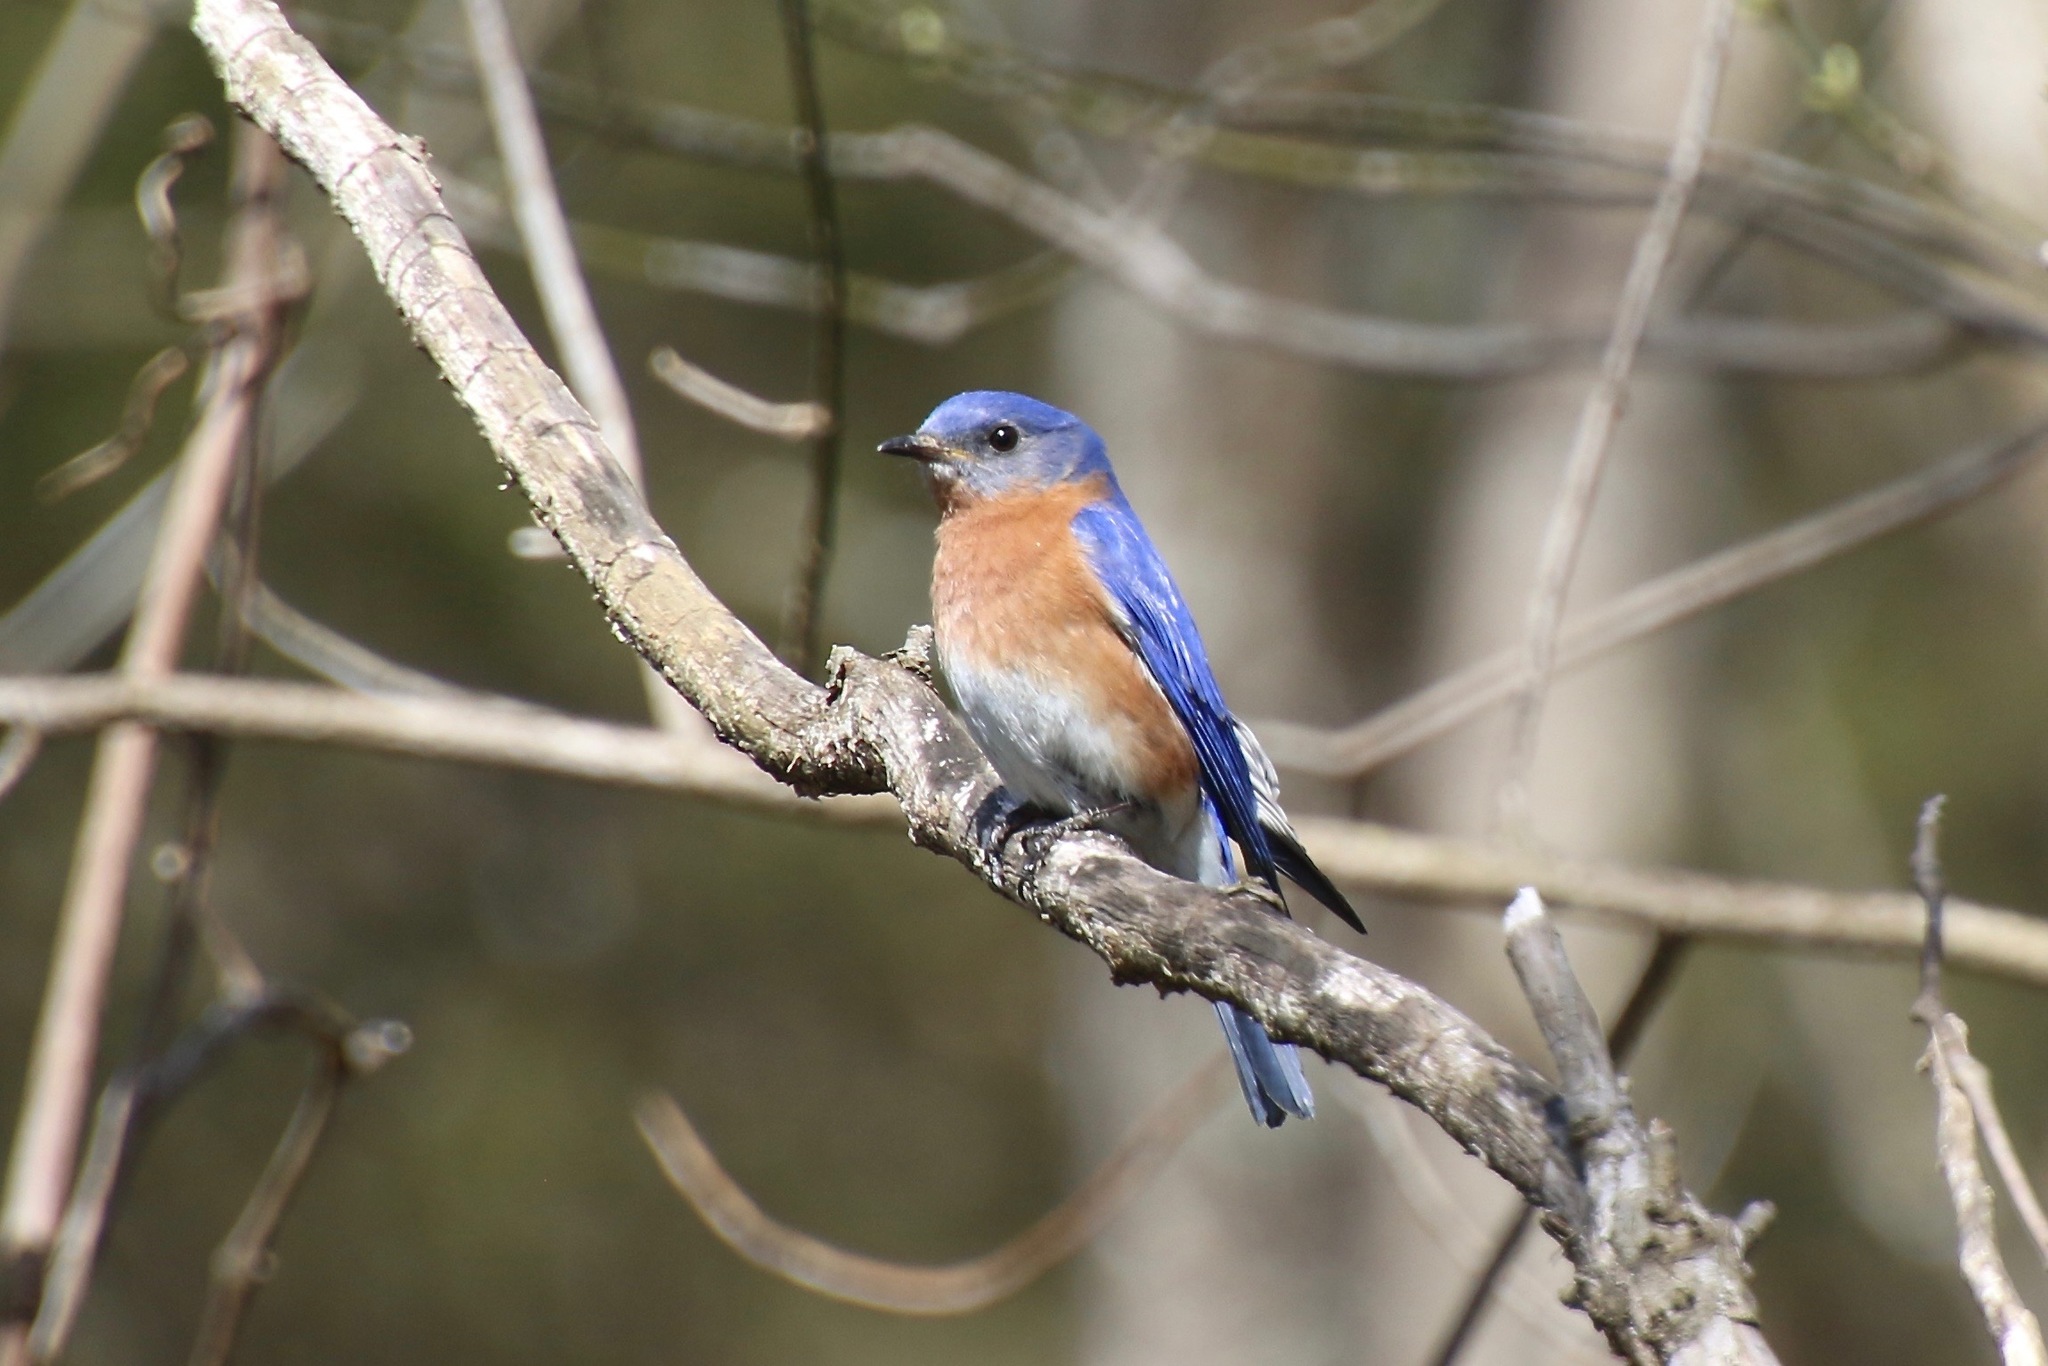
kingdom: Animalia
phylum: Chordata
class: Aves
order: Passeriformes
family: Turdidae
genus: Sialia
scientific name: Sialia sialis
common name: Eastern bluebird
